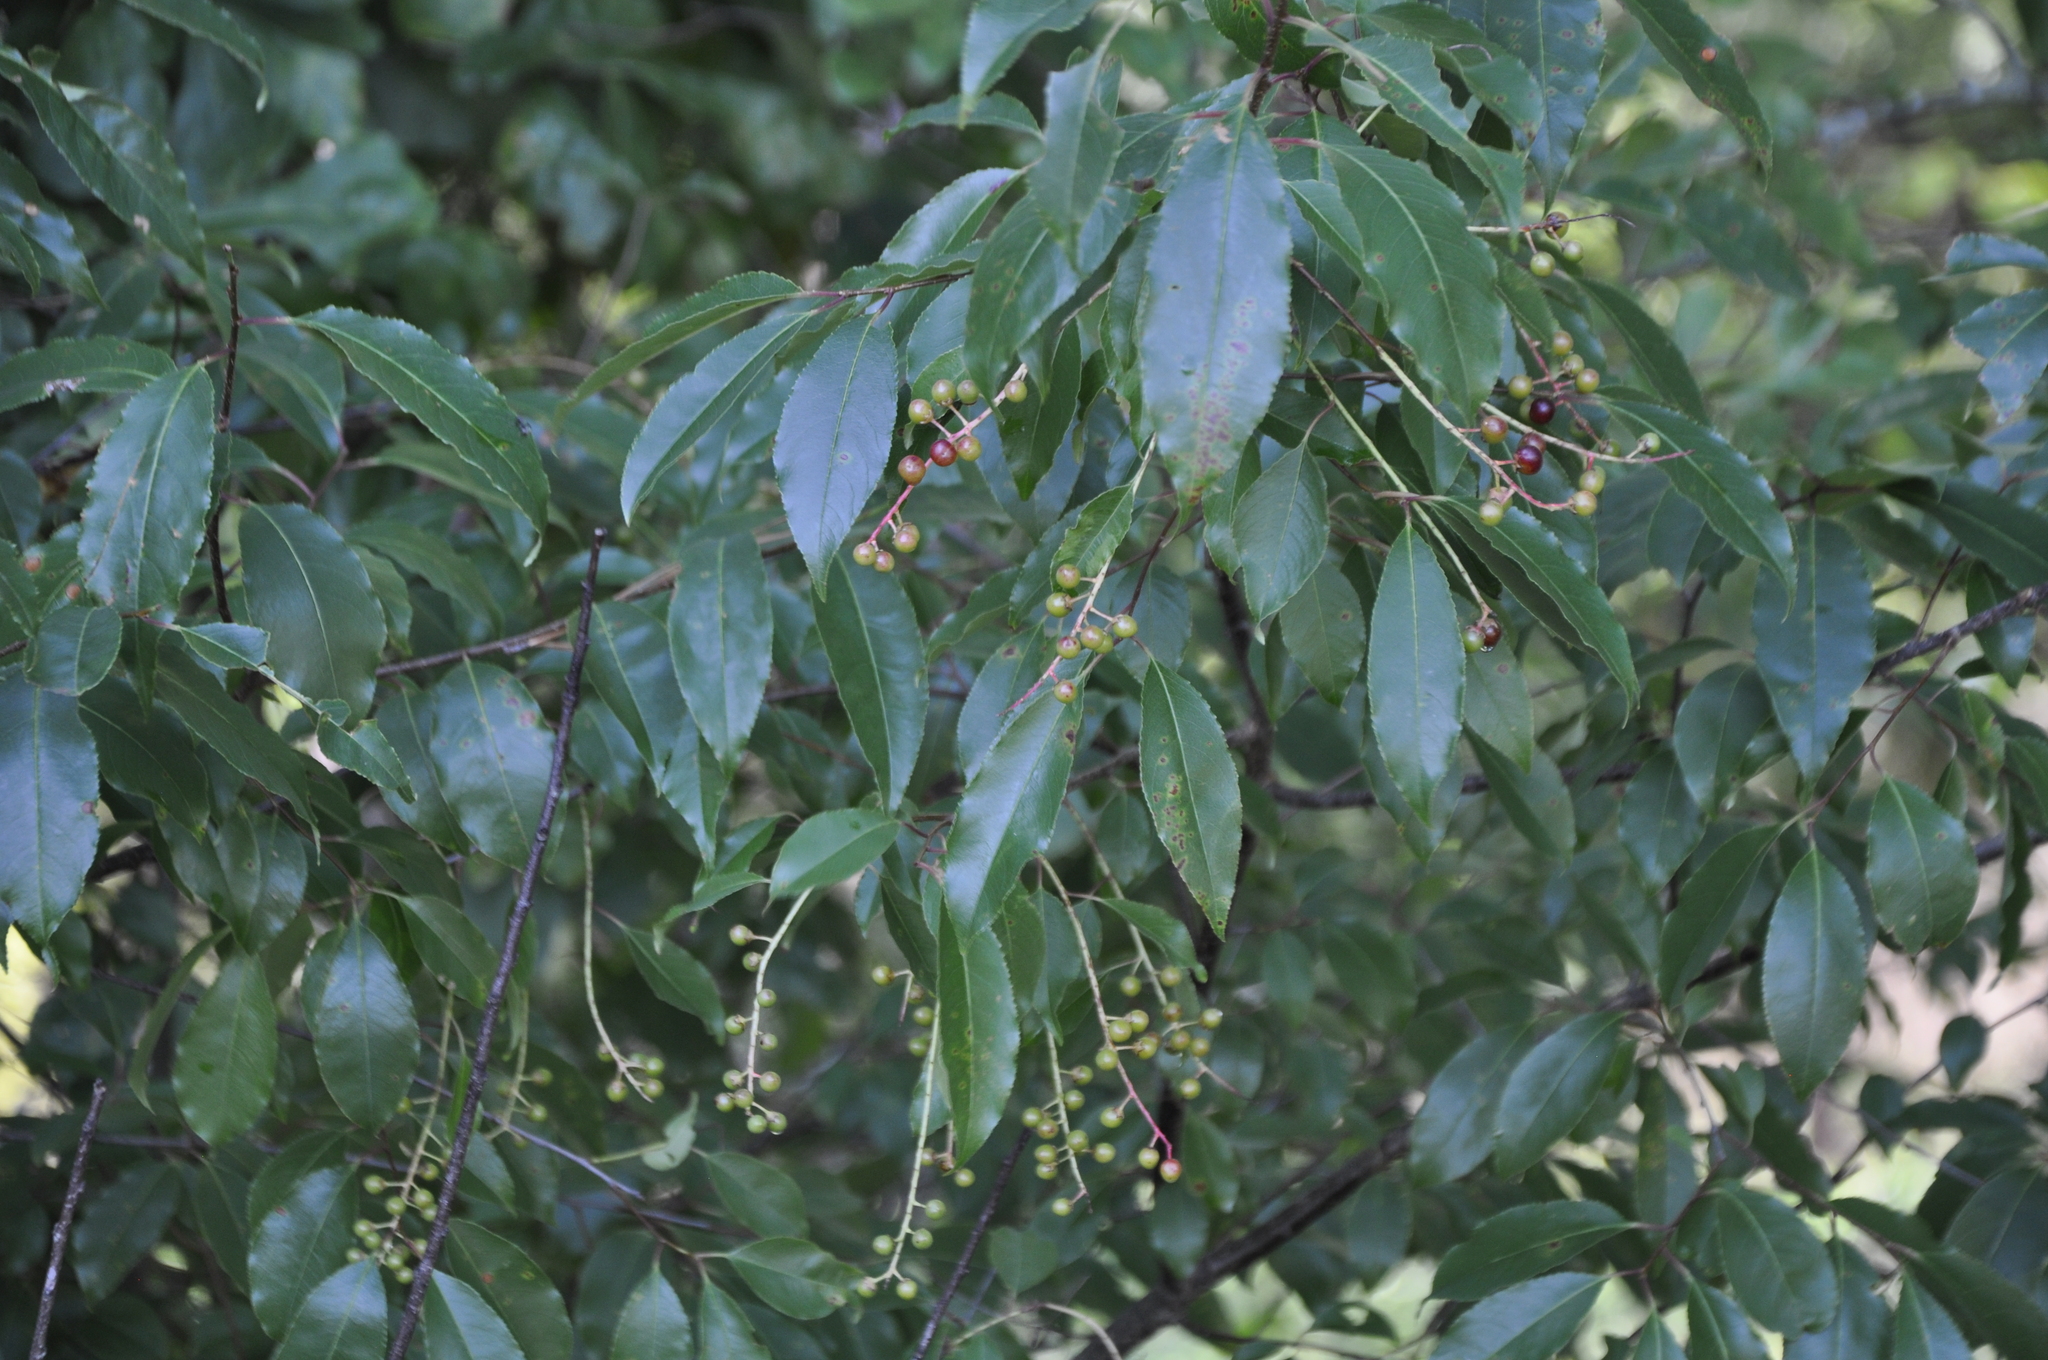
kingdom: Plantae
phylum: Tracheophyta
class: Magnoliopsida
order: Rosales
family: Rosaceae
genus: Prunus
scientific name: Prunus serotina
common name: Black cherry
